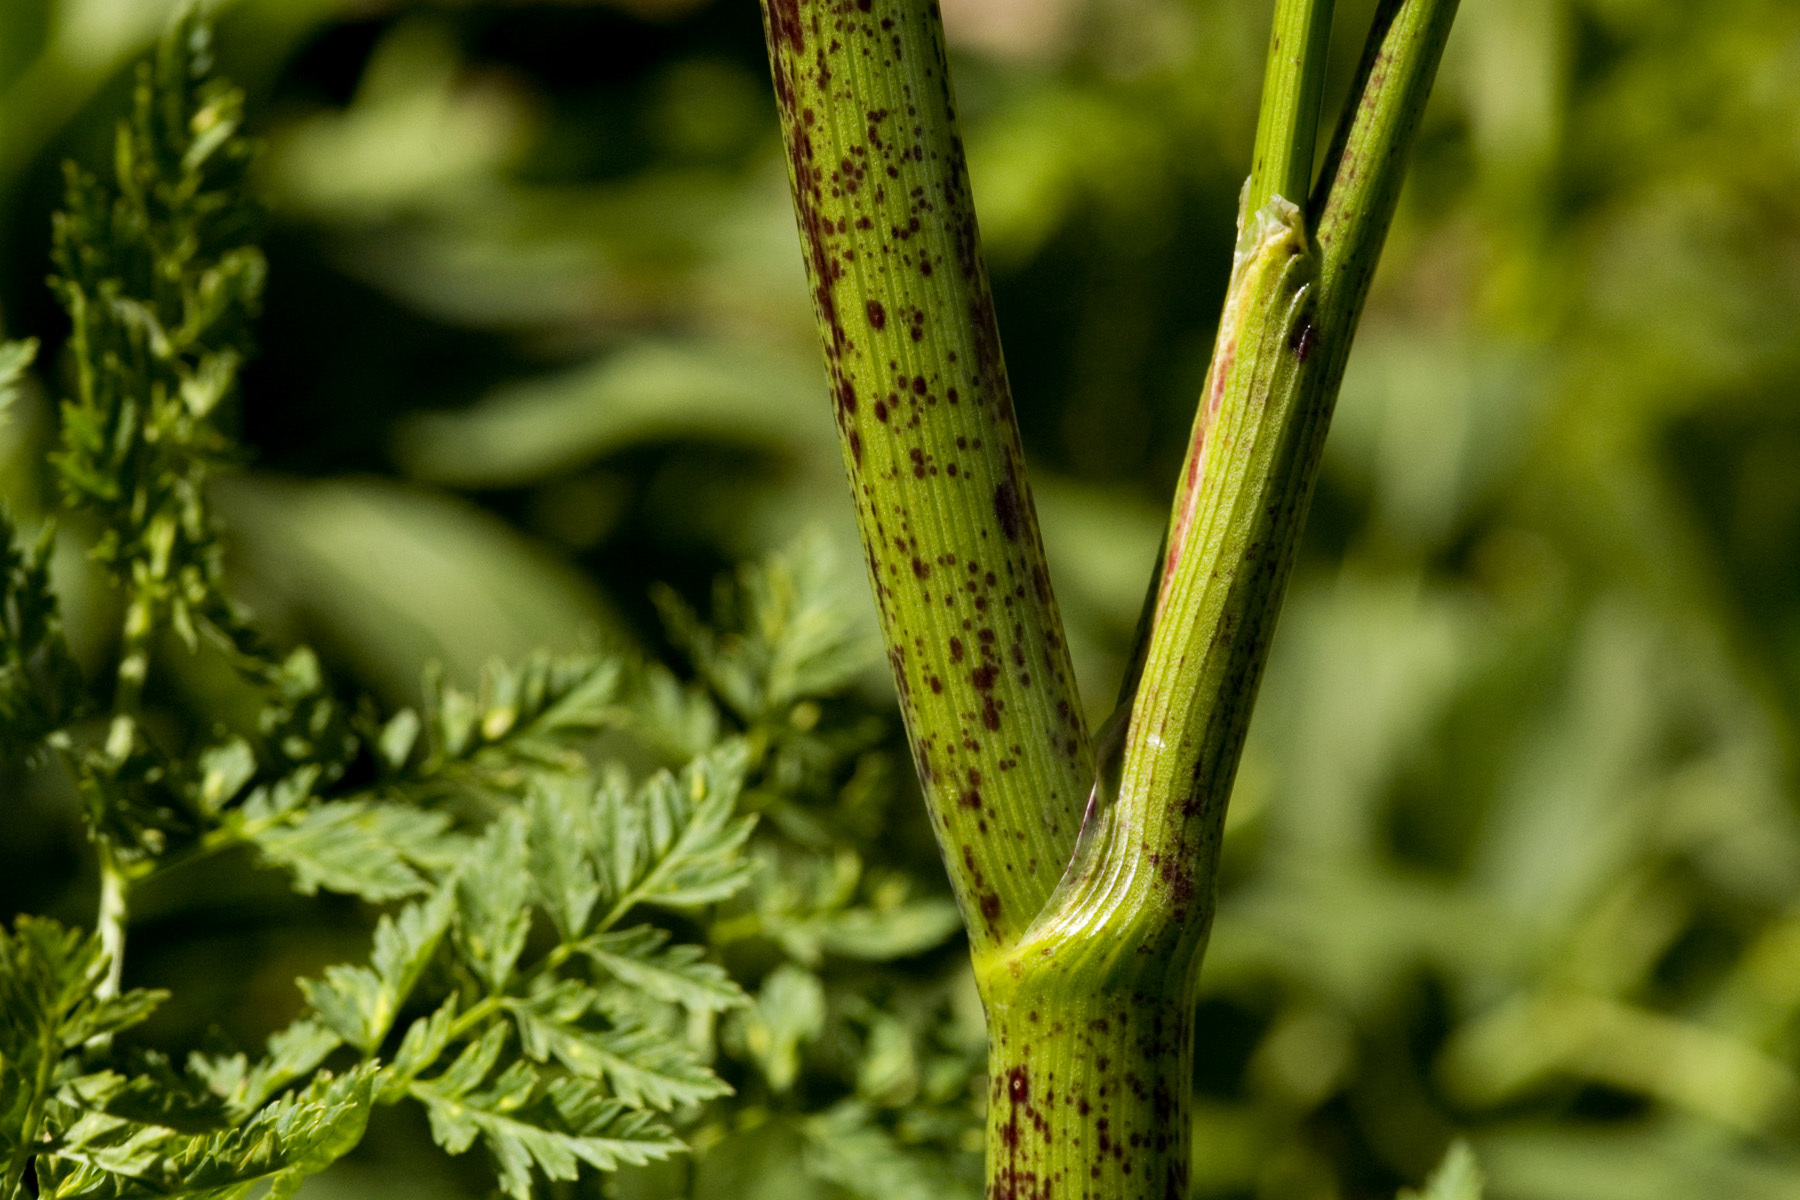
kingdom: Plantae
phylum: Tracheophyta
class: Magnoliopsida
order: Apiales
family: Apiaceae
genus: Conium
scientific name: Conium maculatum
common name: Hemlock
